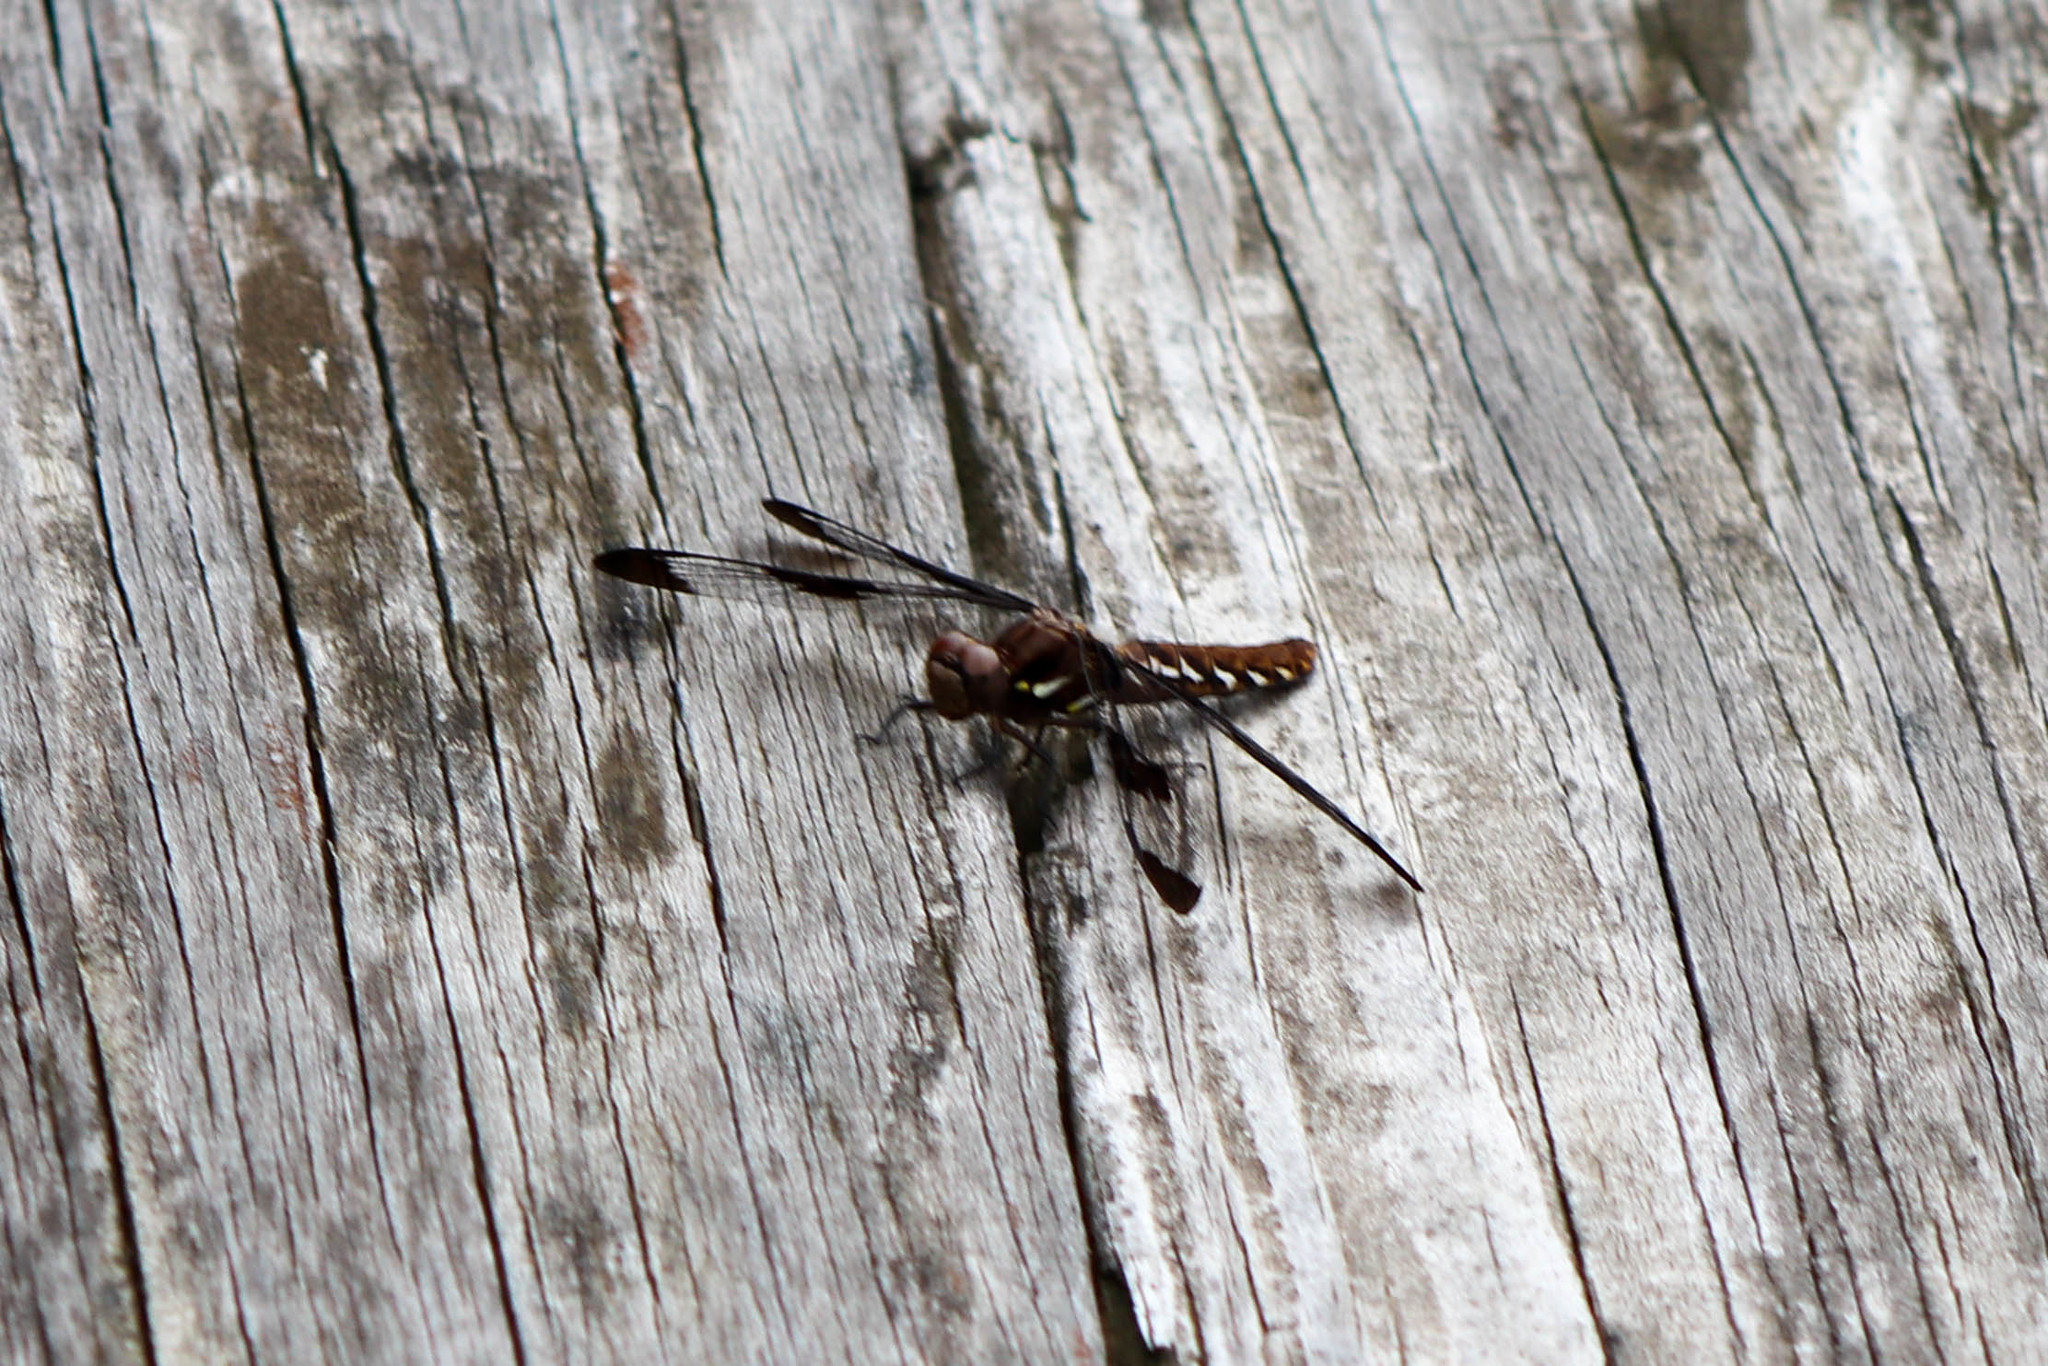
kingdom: Animalia
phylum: Arthropoda
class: Insecta
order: Odonata
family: Libellulidae
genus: Plathemis
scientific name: Plathemis lydia
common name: Common whitetail
